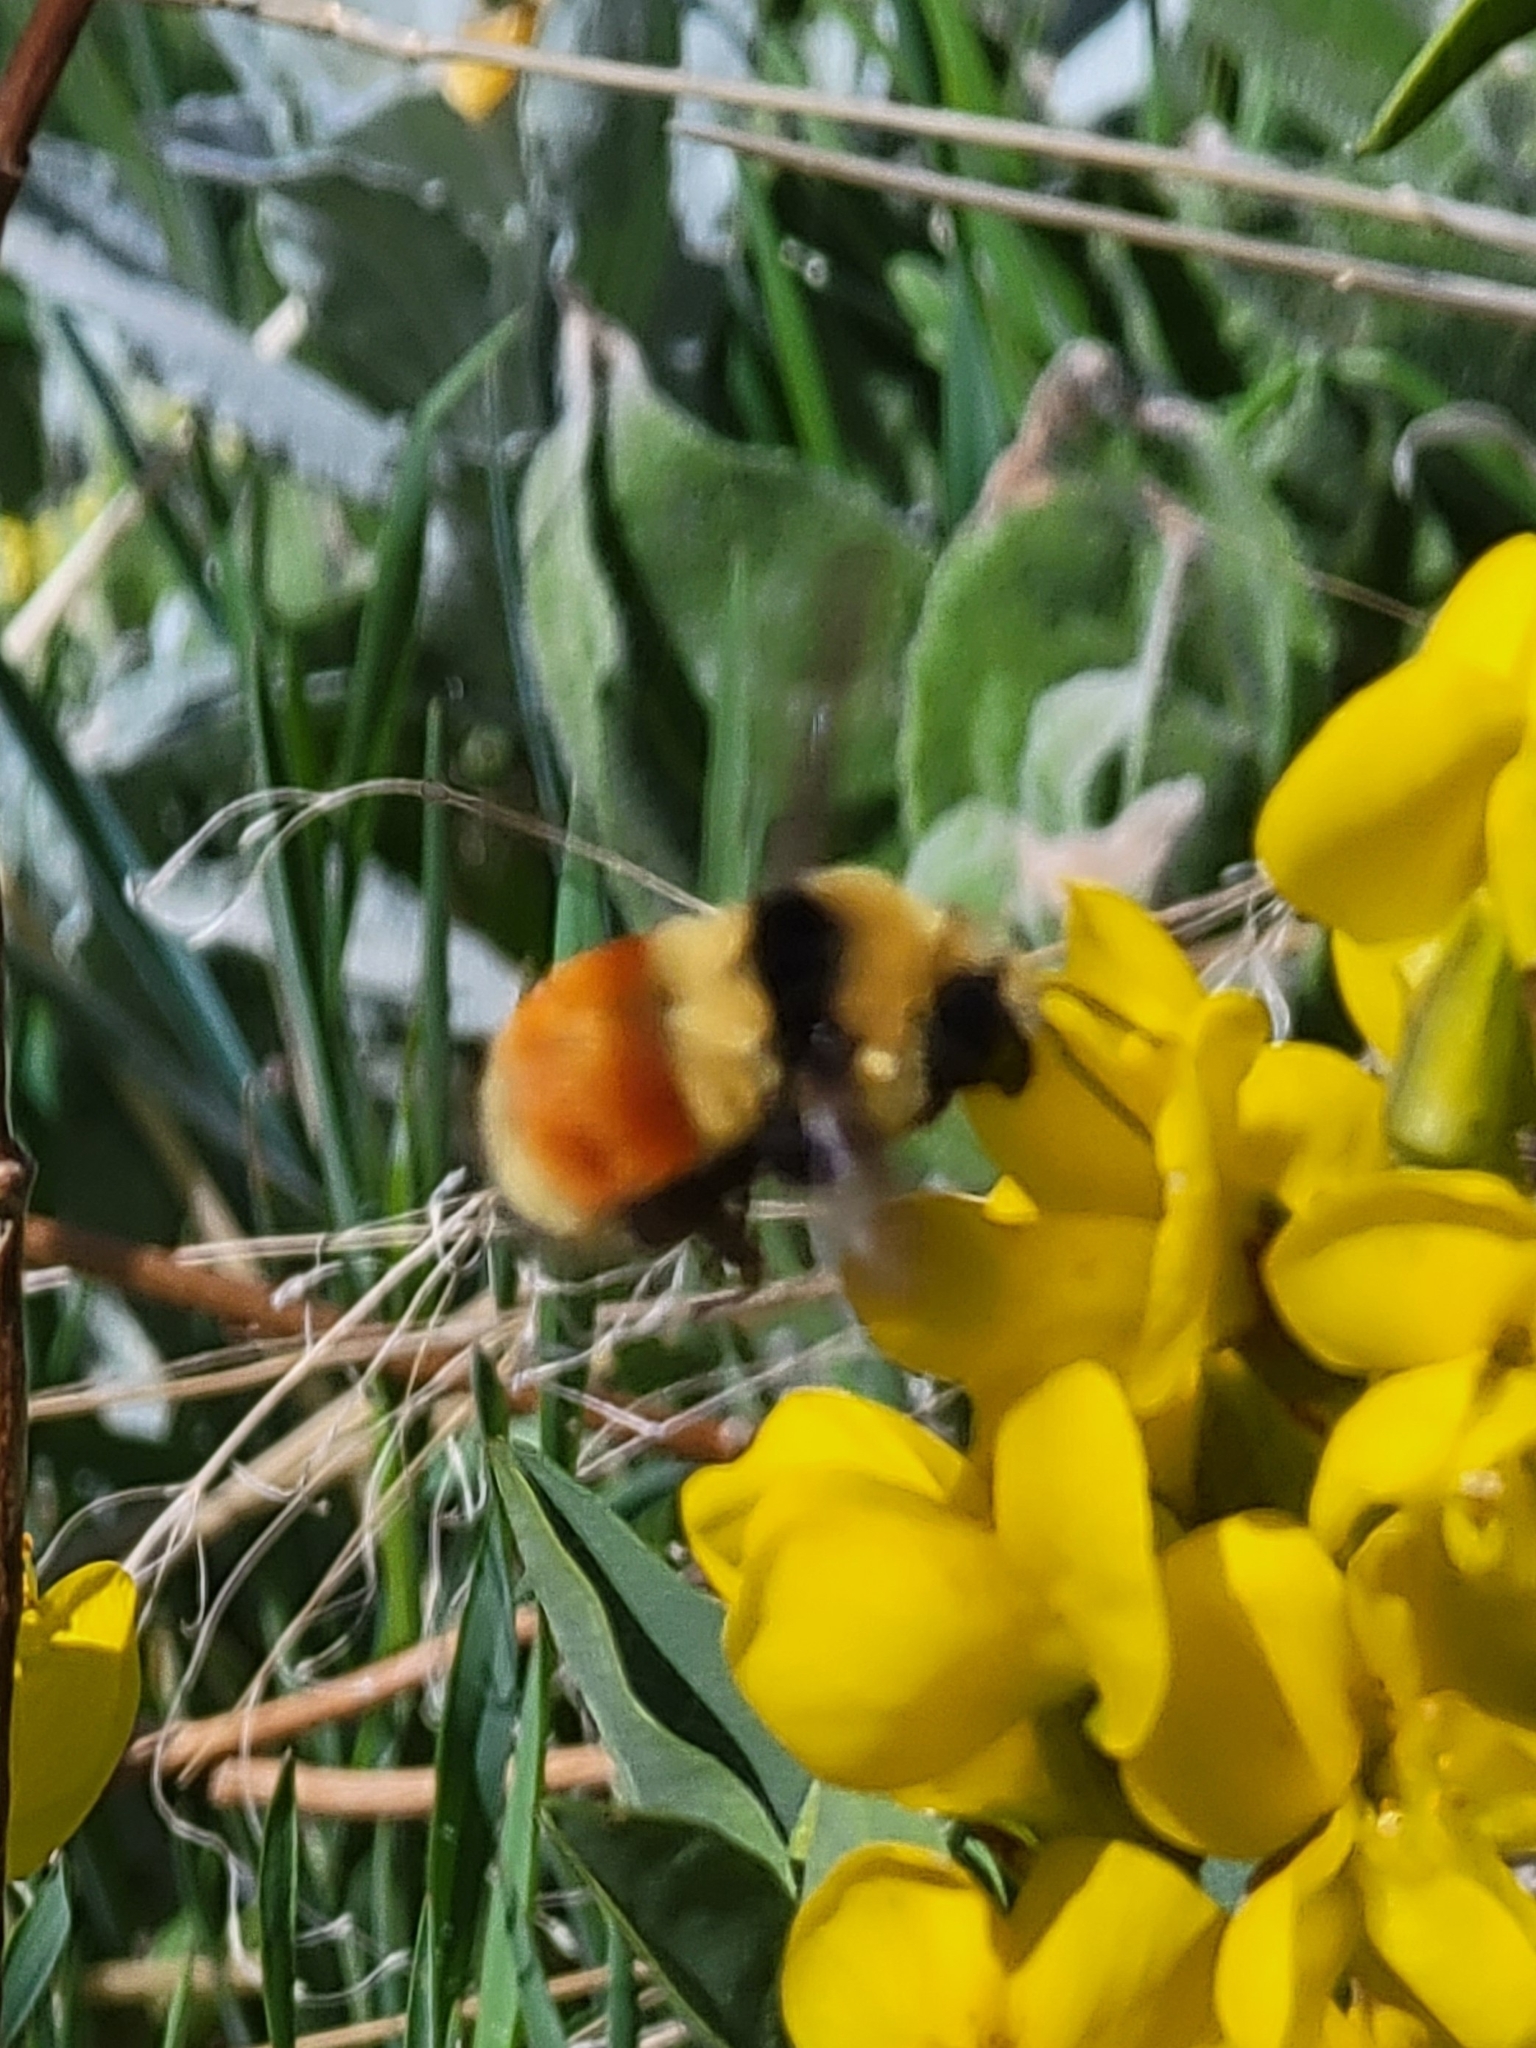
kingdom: Animalia
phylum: Arthropoda
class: Insecta
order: Hymenoptera
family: Apidae
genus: Bombus
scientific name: Bombus huntii
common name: Hunt bumble bee
